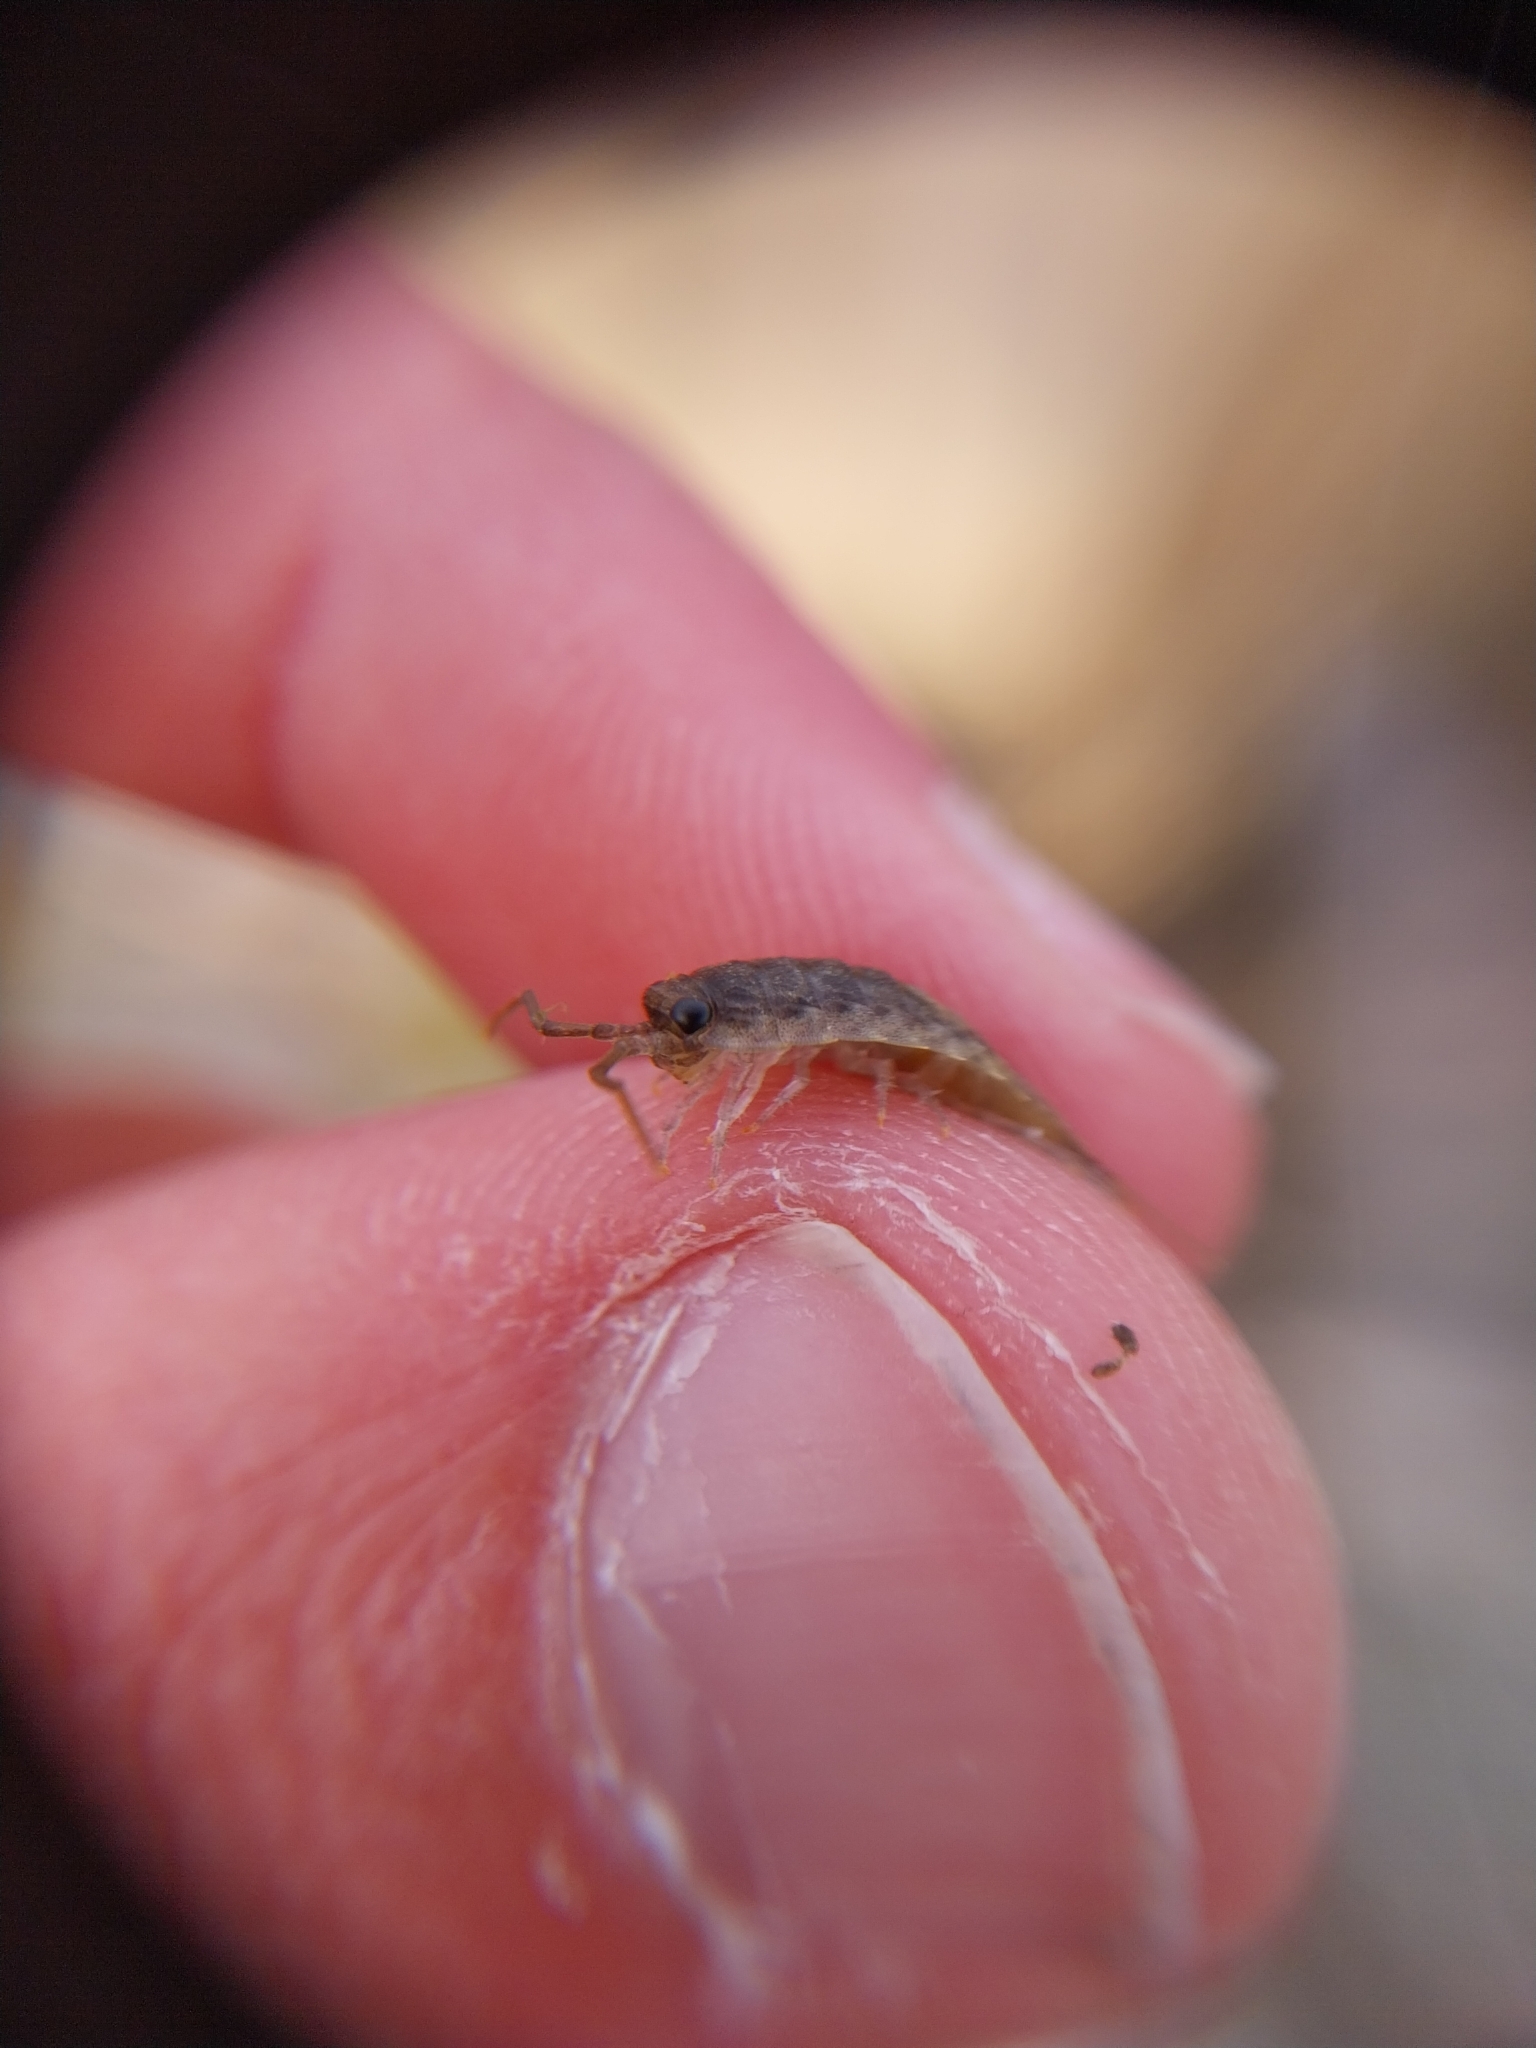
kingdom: Animalia
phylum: Arthropoda
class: Malacostraca
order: Isopoda
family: Ligiidae
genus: Ligia
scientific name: Ligia oceanica
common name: Sea slater
